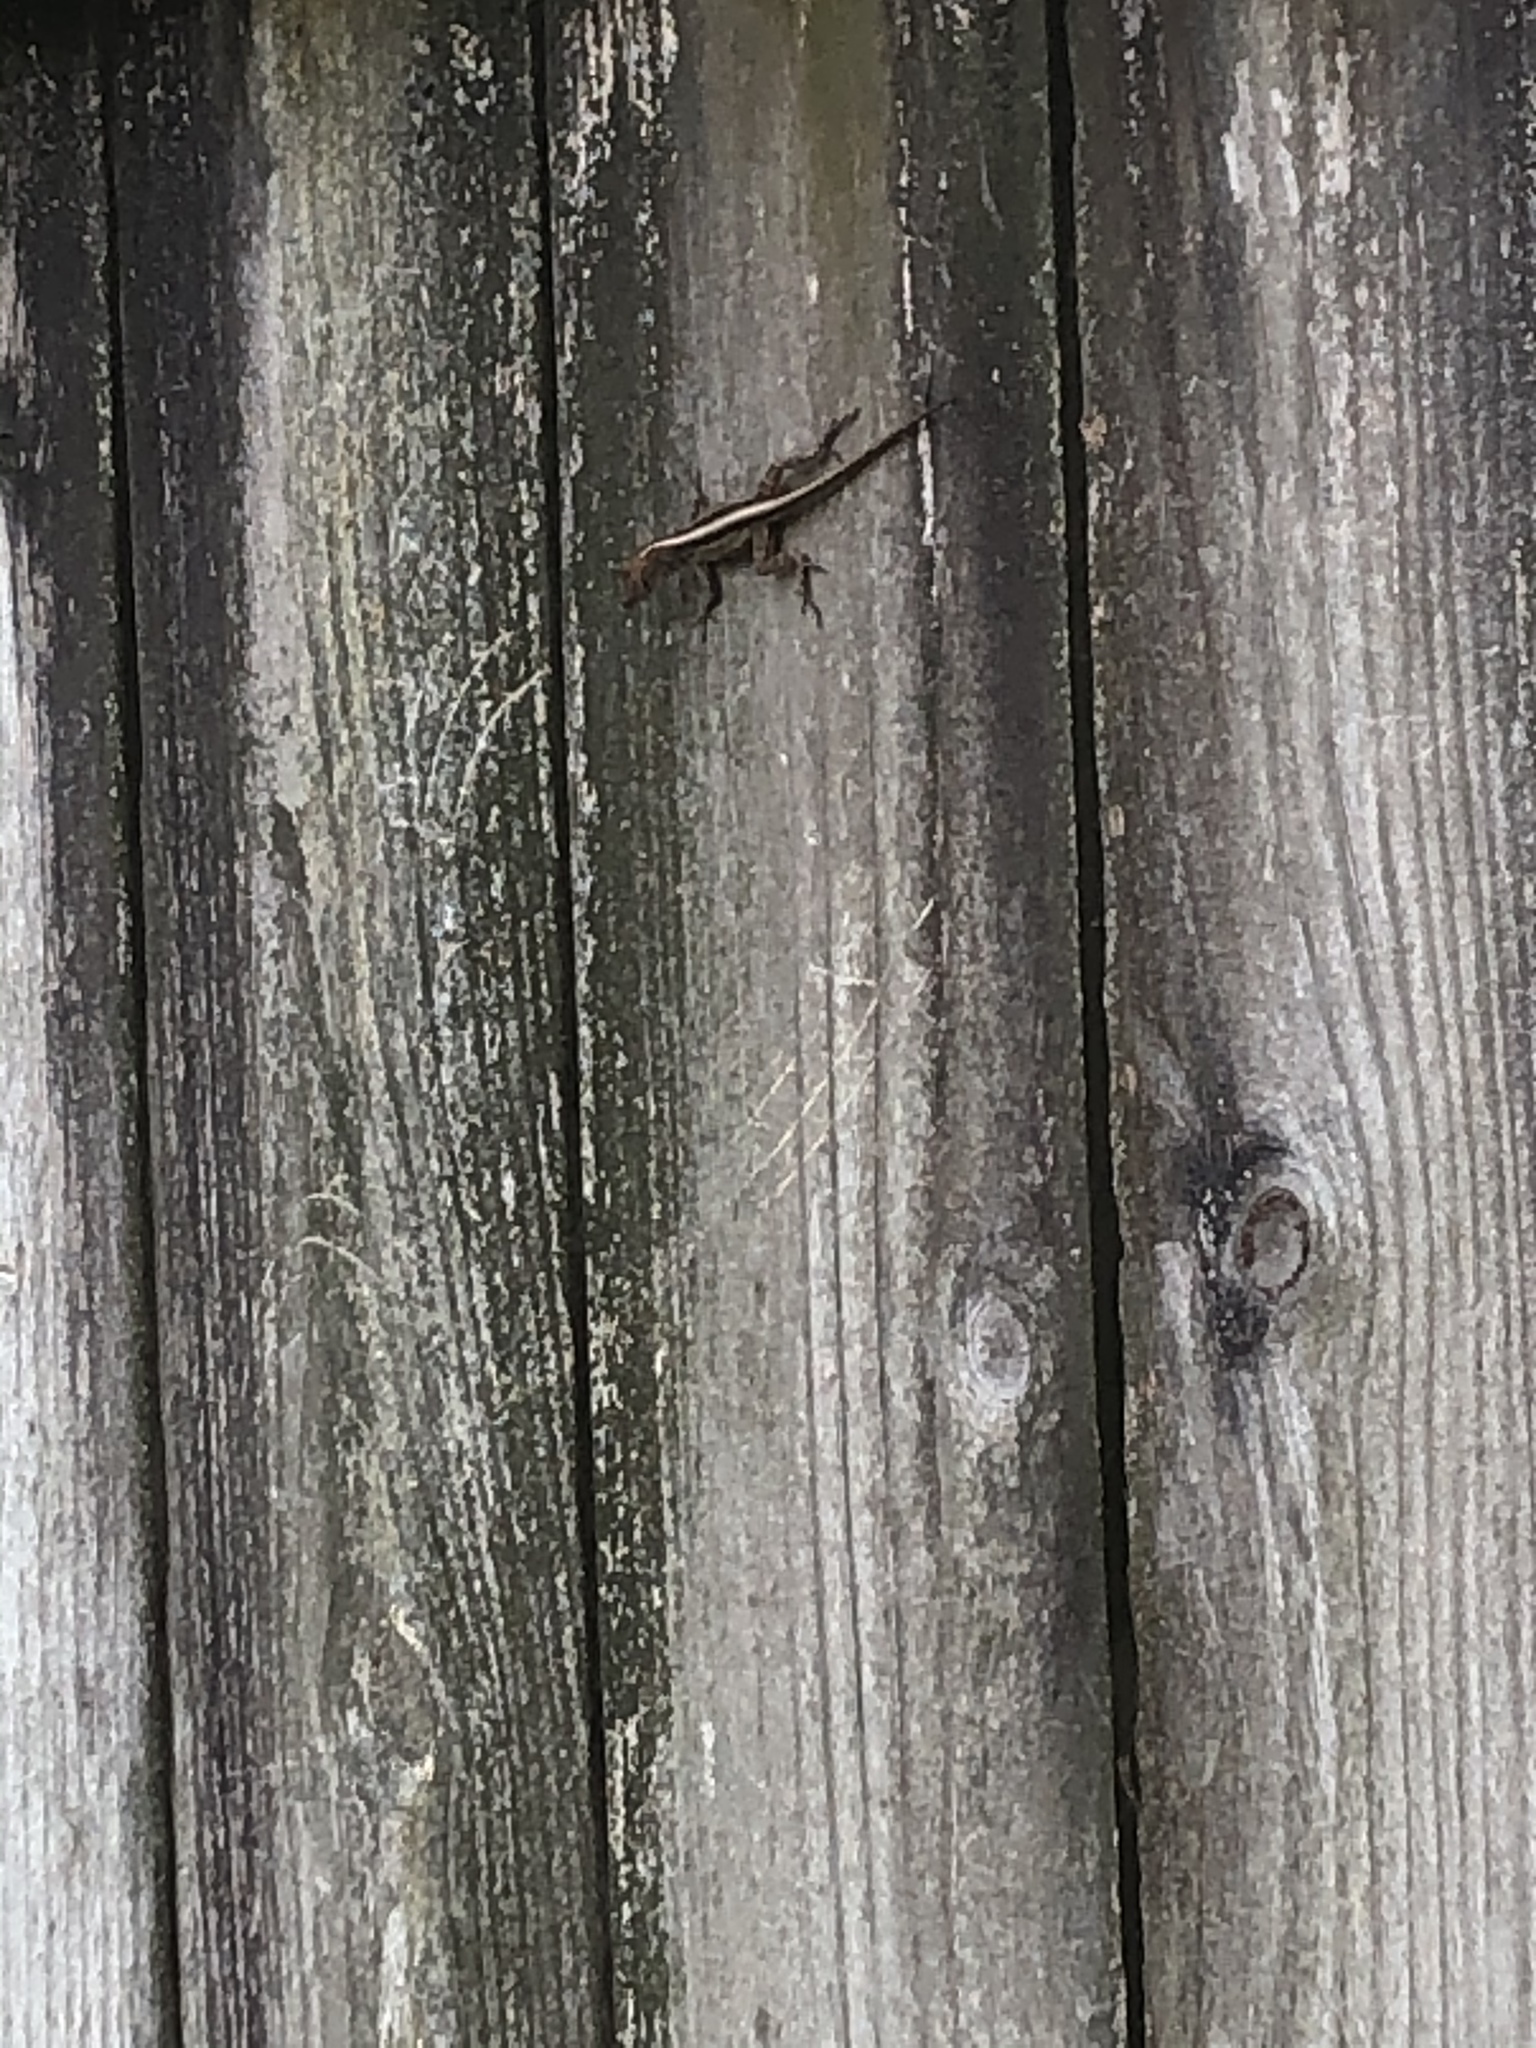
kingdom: Animalia
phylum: Chordata
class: Squamata
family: Dactyloidae
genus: Anolis
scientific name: Anolis sagrei
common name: Brown anole
